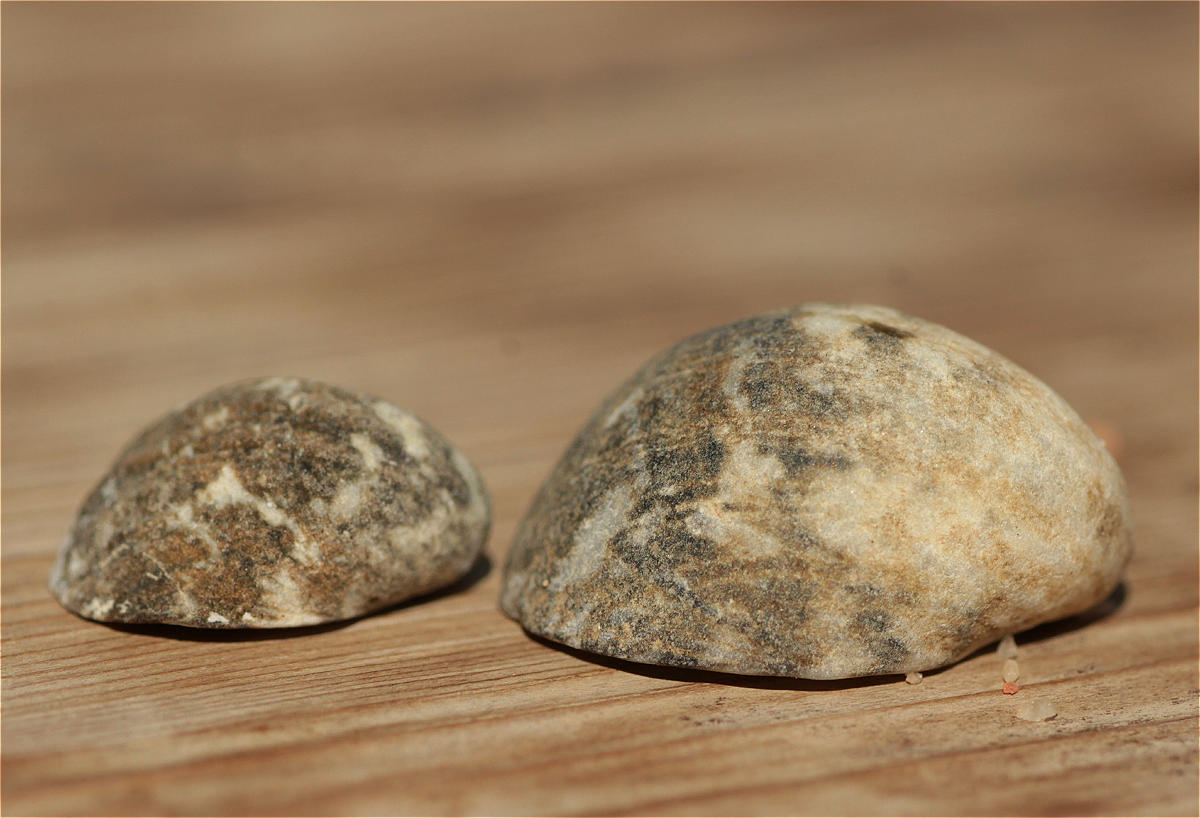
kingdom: Animalia
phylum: Mollusca
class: Gastropoda
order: Cycloneritida
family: Neritidae
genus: Nerita
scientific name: Nerita albicilla
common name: Blotched nerite
